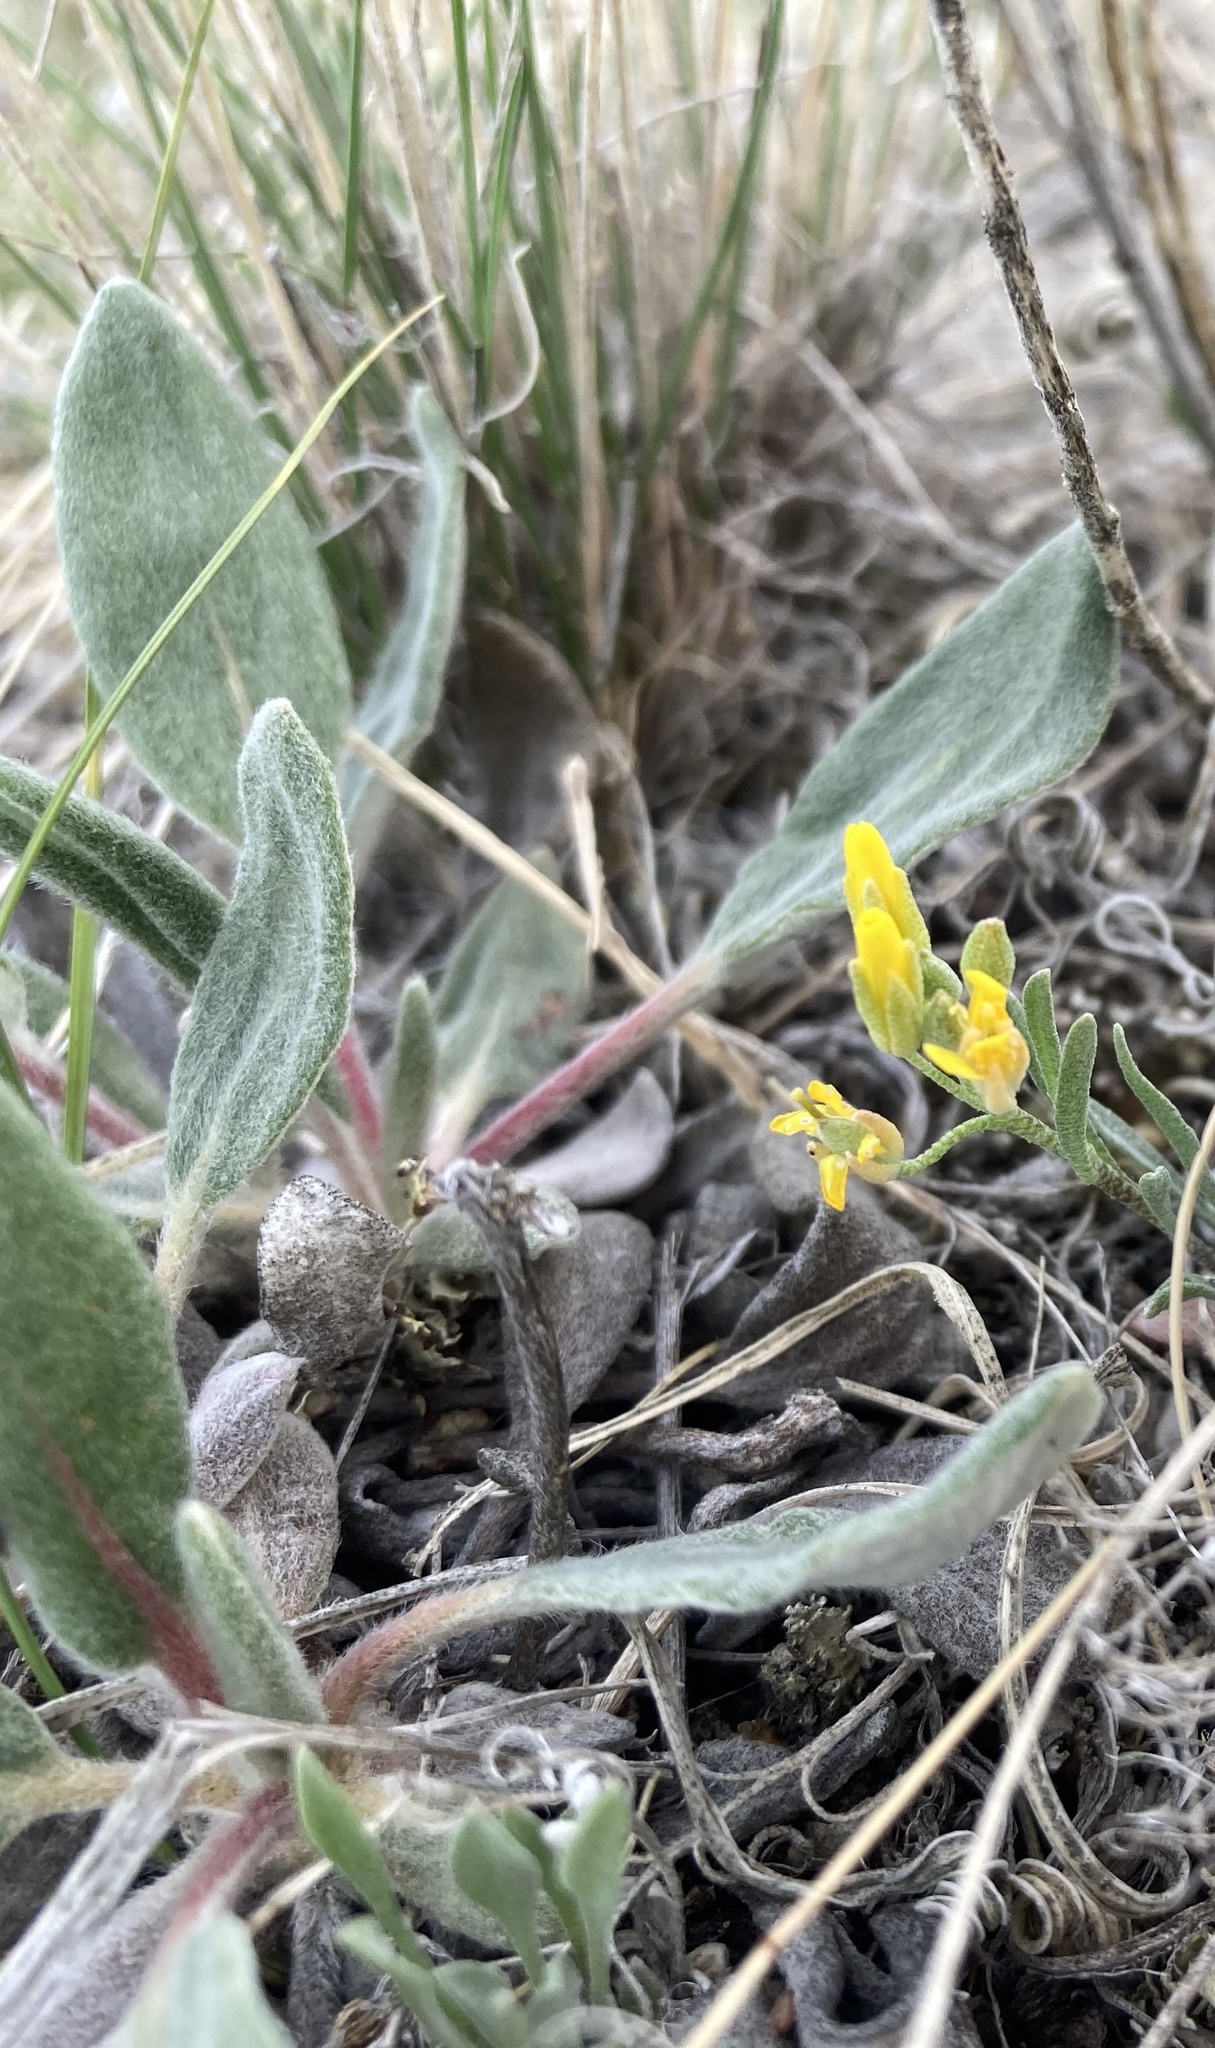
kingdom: Plantae
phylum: Tracheophyta
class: Magnoliopsida
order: Caryophyllales
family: Polygonaceae
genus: Eriogonum
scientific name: Eriogonum flavum
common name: Alpine golden wild buckwheat
